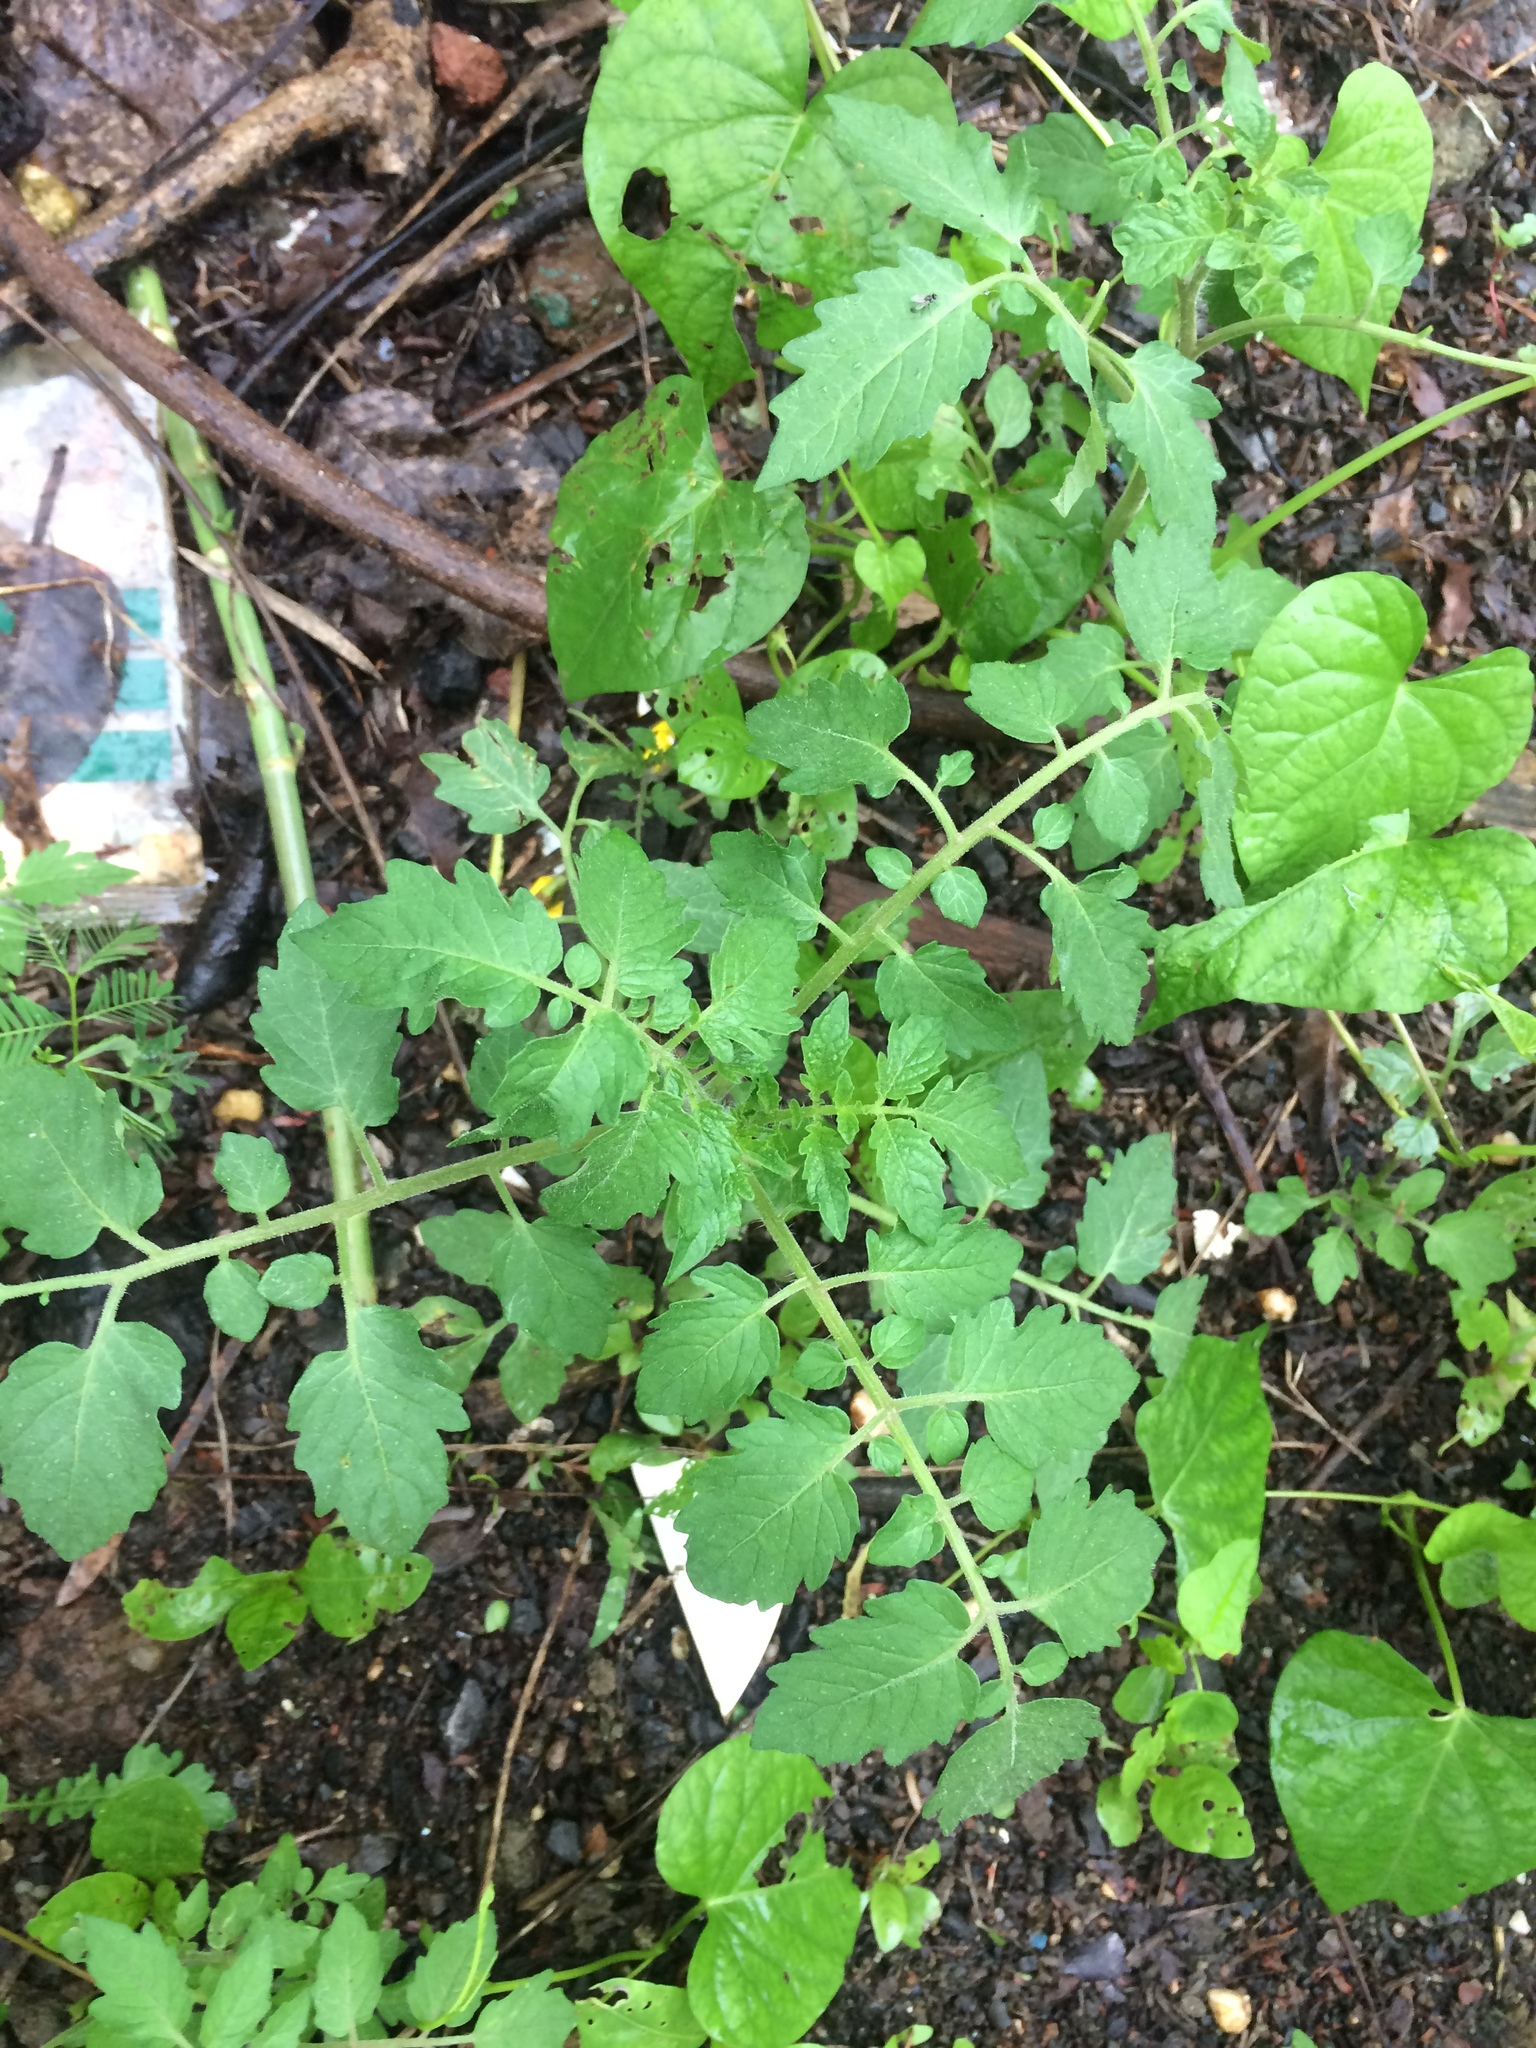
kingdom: Plantae
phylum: Tracheophyta
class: Magnoliopsida
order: Solanales
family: Solanaceae
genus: Solanum
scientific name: Solanum lycopersicum
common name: Garden tomato
